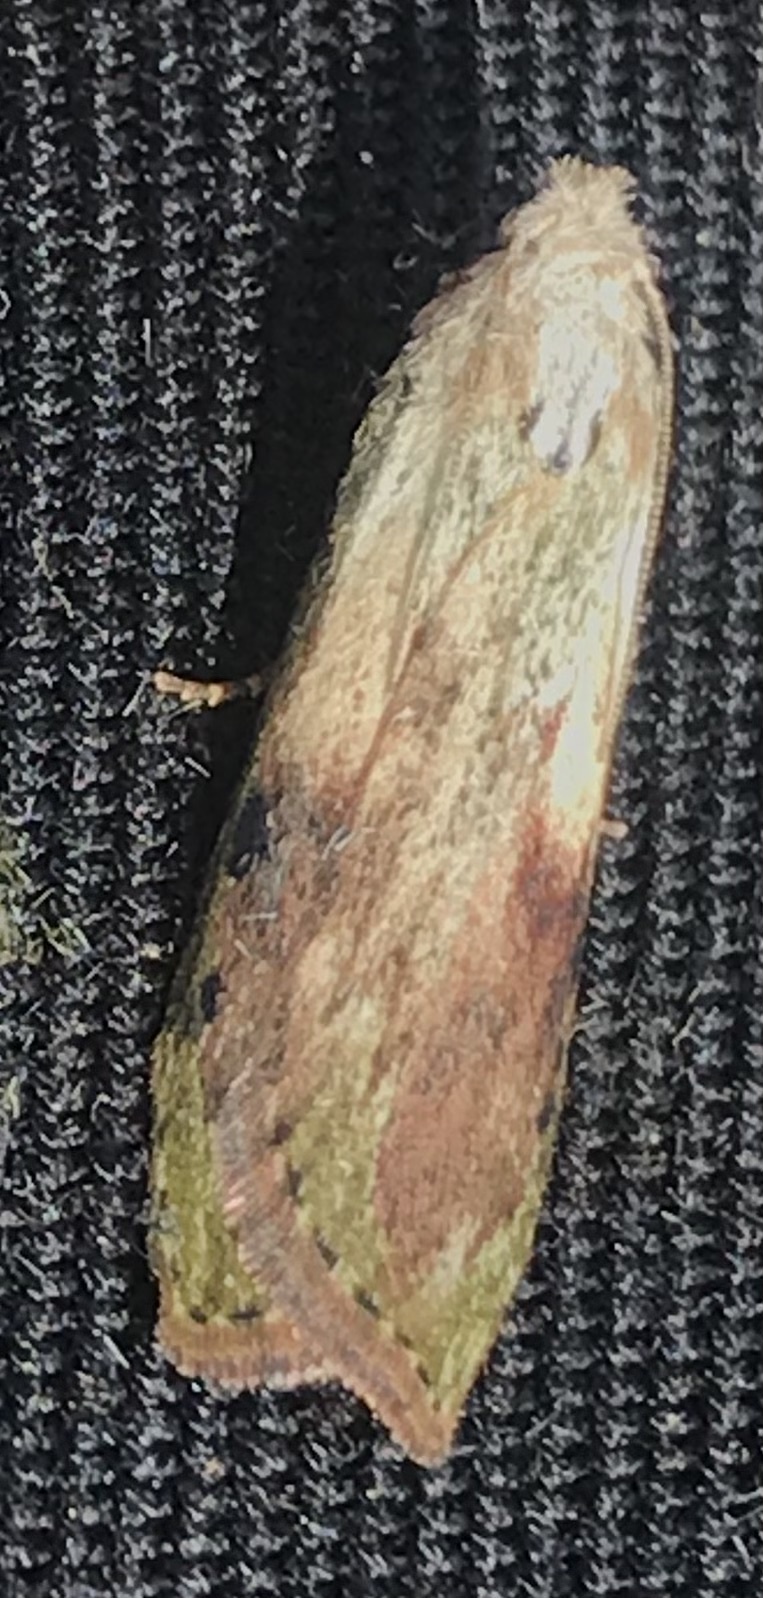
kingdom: Animalia
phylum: Arthropoda
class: Insecta
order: Lepidoptera
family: Pyralidae
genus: Aphomia
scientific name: Aphomia sociella
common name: Bee moth
